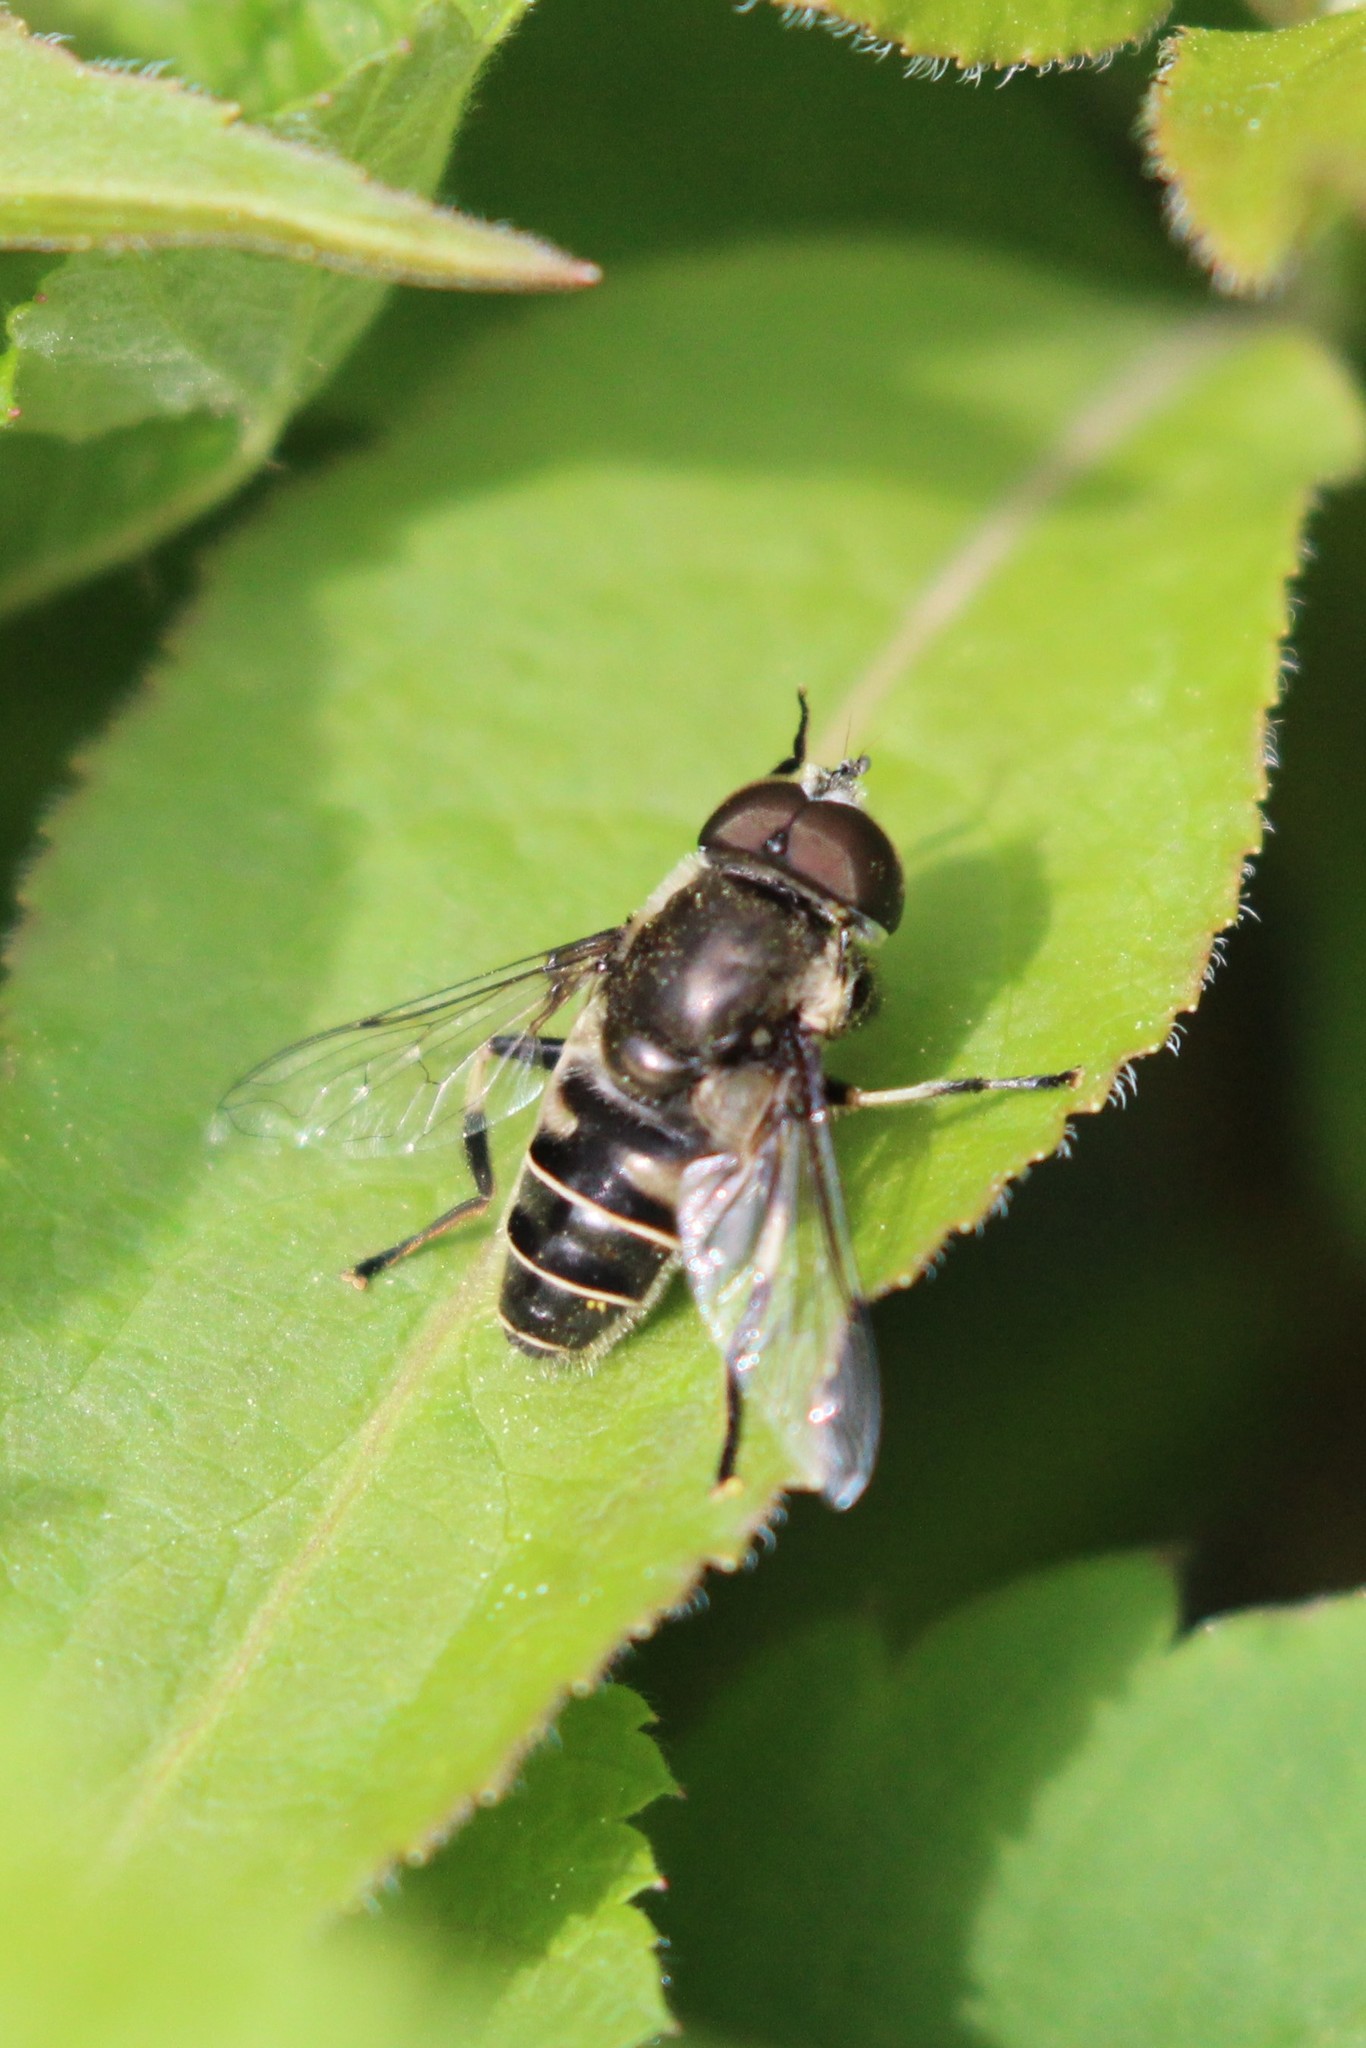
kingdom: Animalia
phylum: Arthropoda
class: Insecta
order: Diptera
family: Syrphidae
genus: Eristalis
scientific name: Eristalis dimidiata
